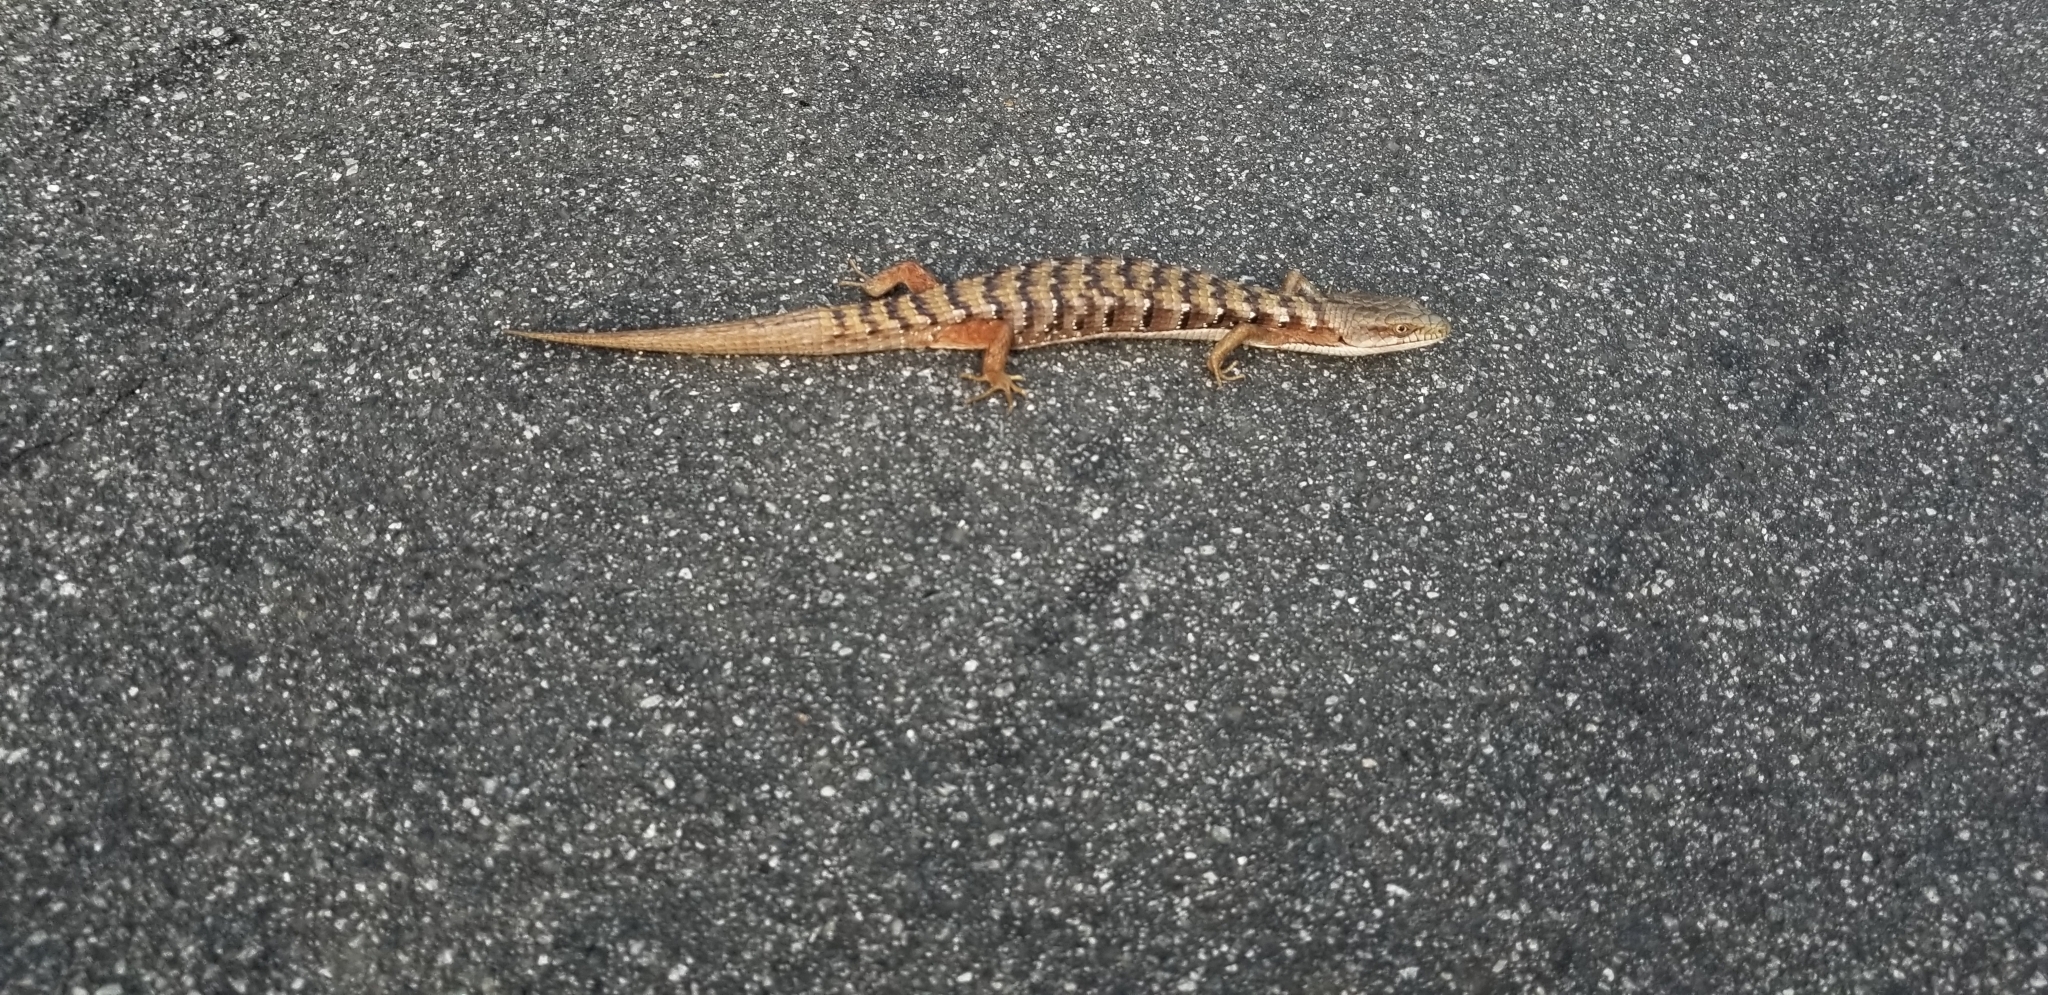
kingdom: Animalia
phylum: Chordata
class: Squamata
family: Anguidae
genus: Elgaria
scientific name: Elgaria multicarinata
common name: Southern alligator lizard
